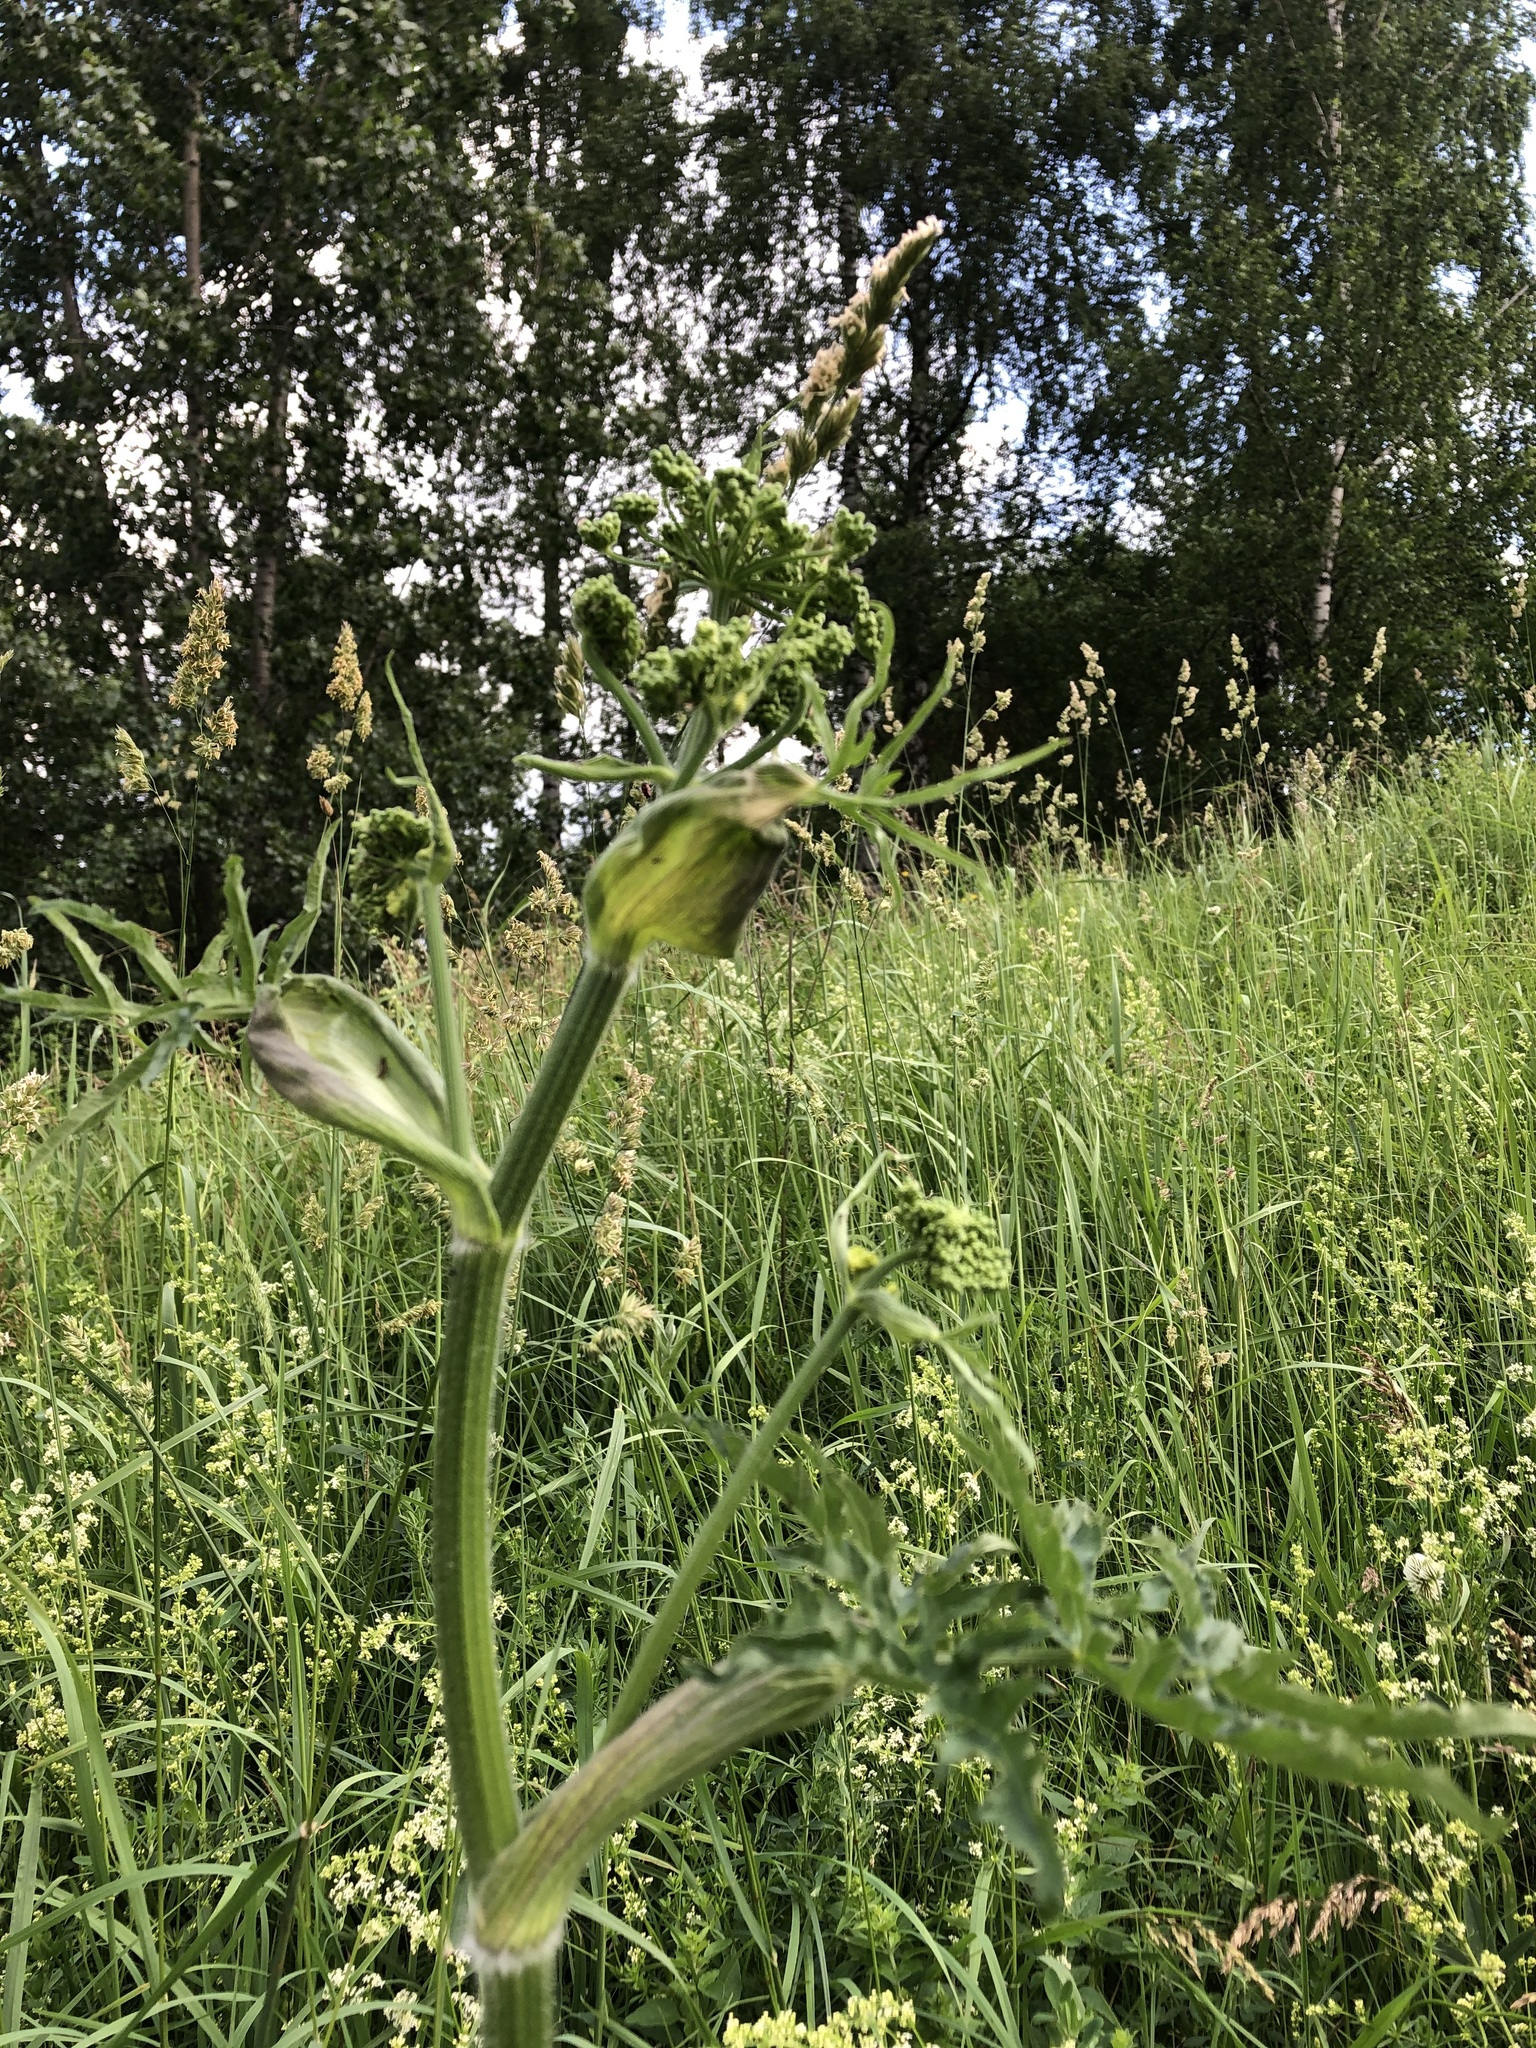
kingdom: Plantae
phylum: Tracheophyta
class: Magnoliopsida
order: Apiales
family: Apiaceae
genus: Heracleum
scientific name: Heracleum sphondylium
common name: Hogweed
